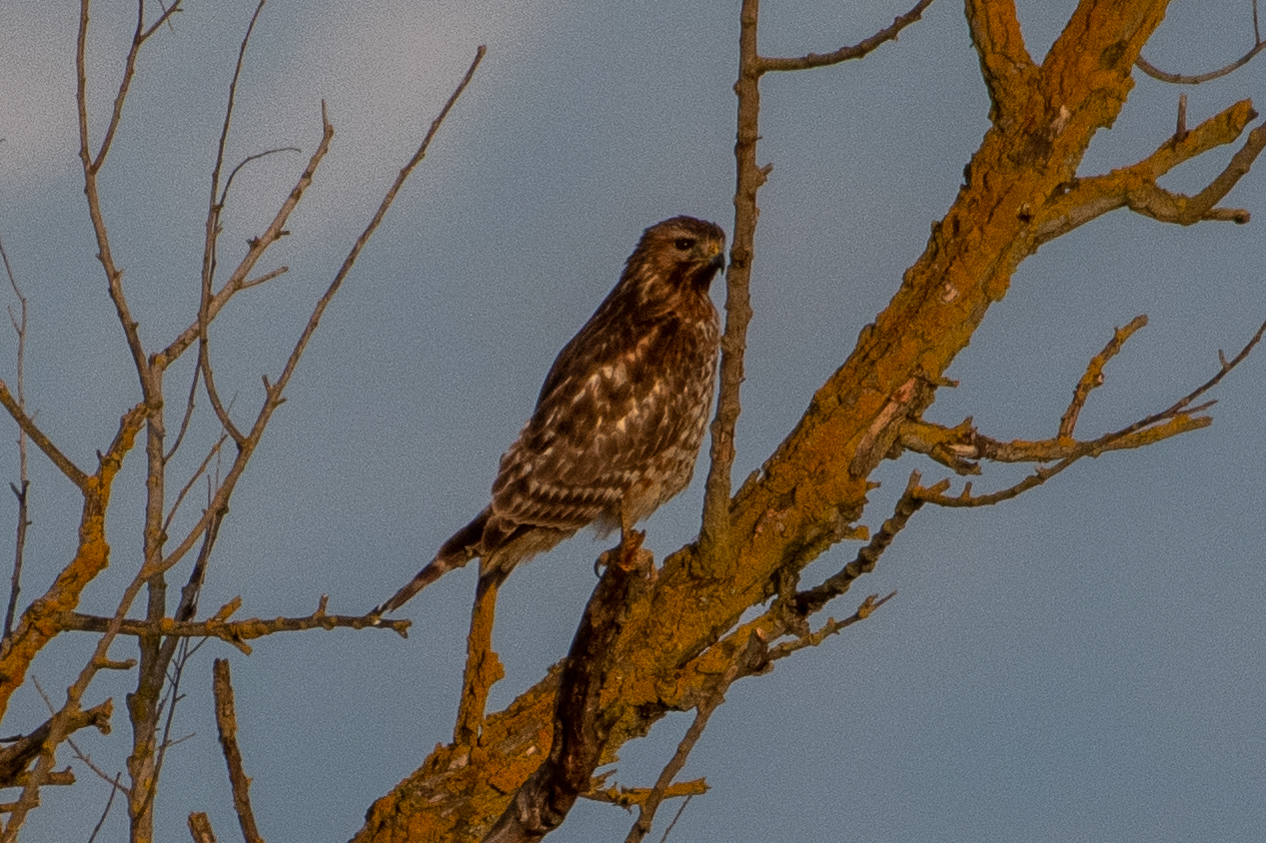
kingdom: Animalia
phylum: Chordata
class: Aves
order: Accipitriformes
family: Accipitridae
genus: Buteo
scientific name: Buteo lineatus
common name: Red-shouldered hawk
